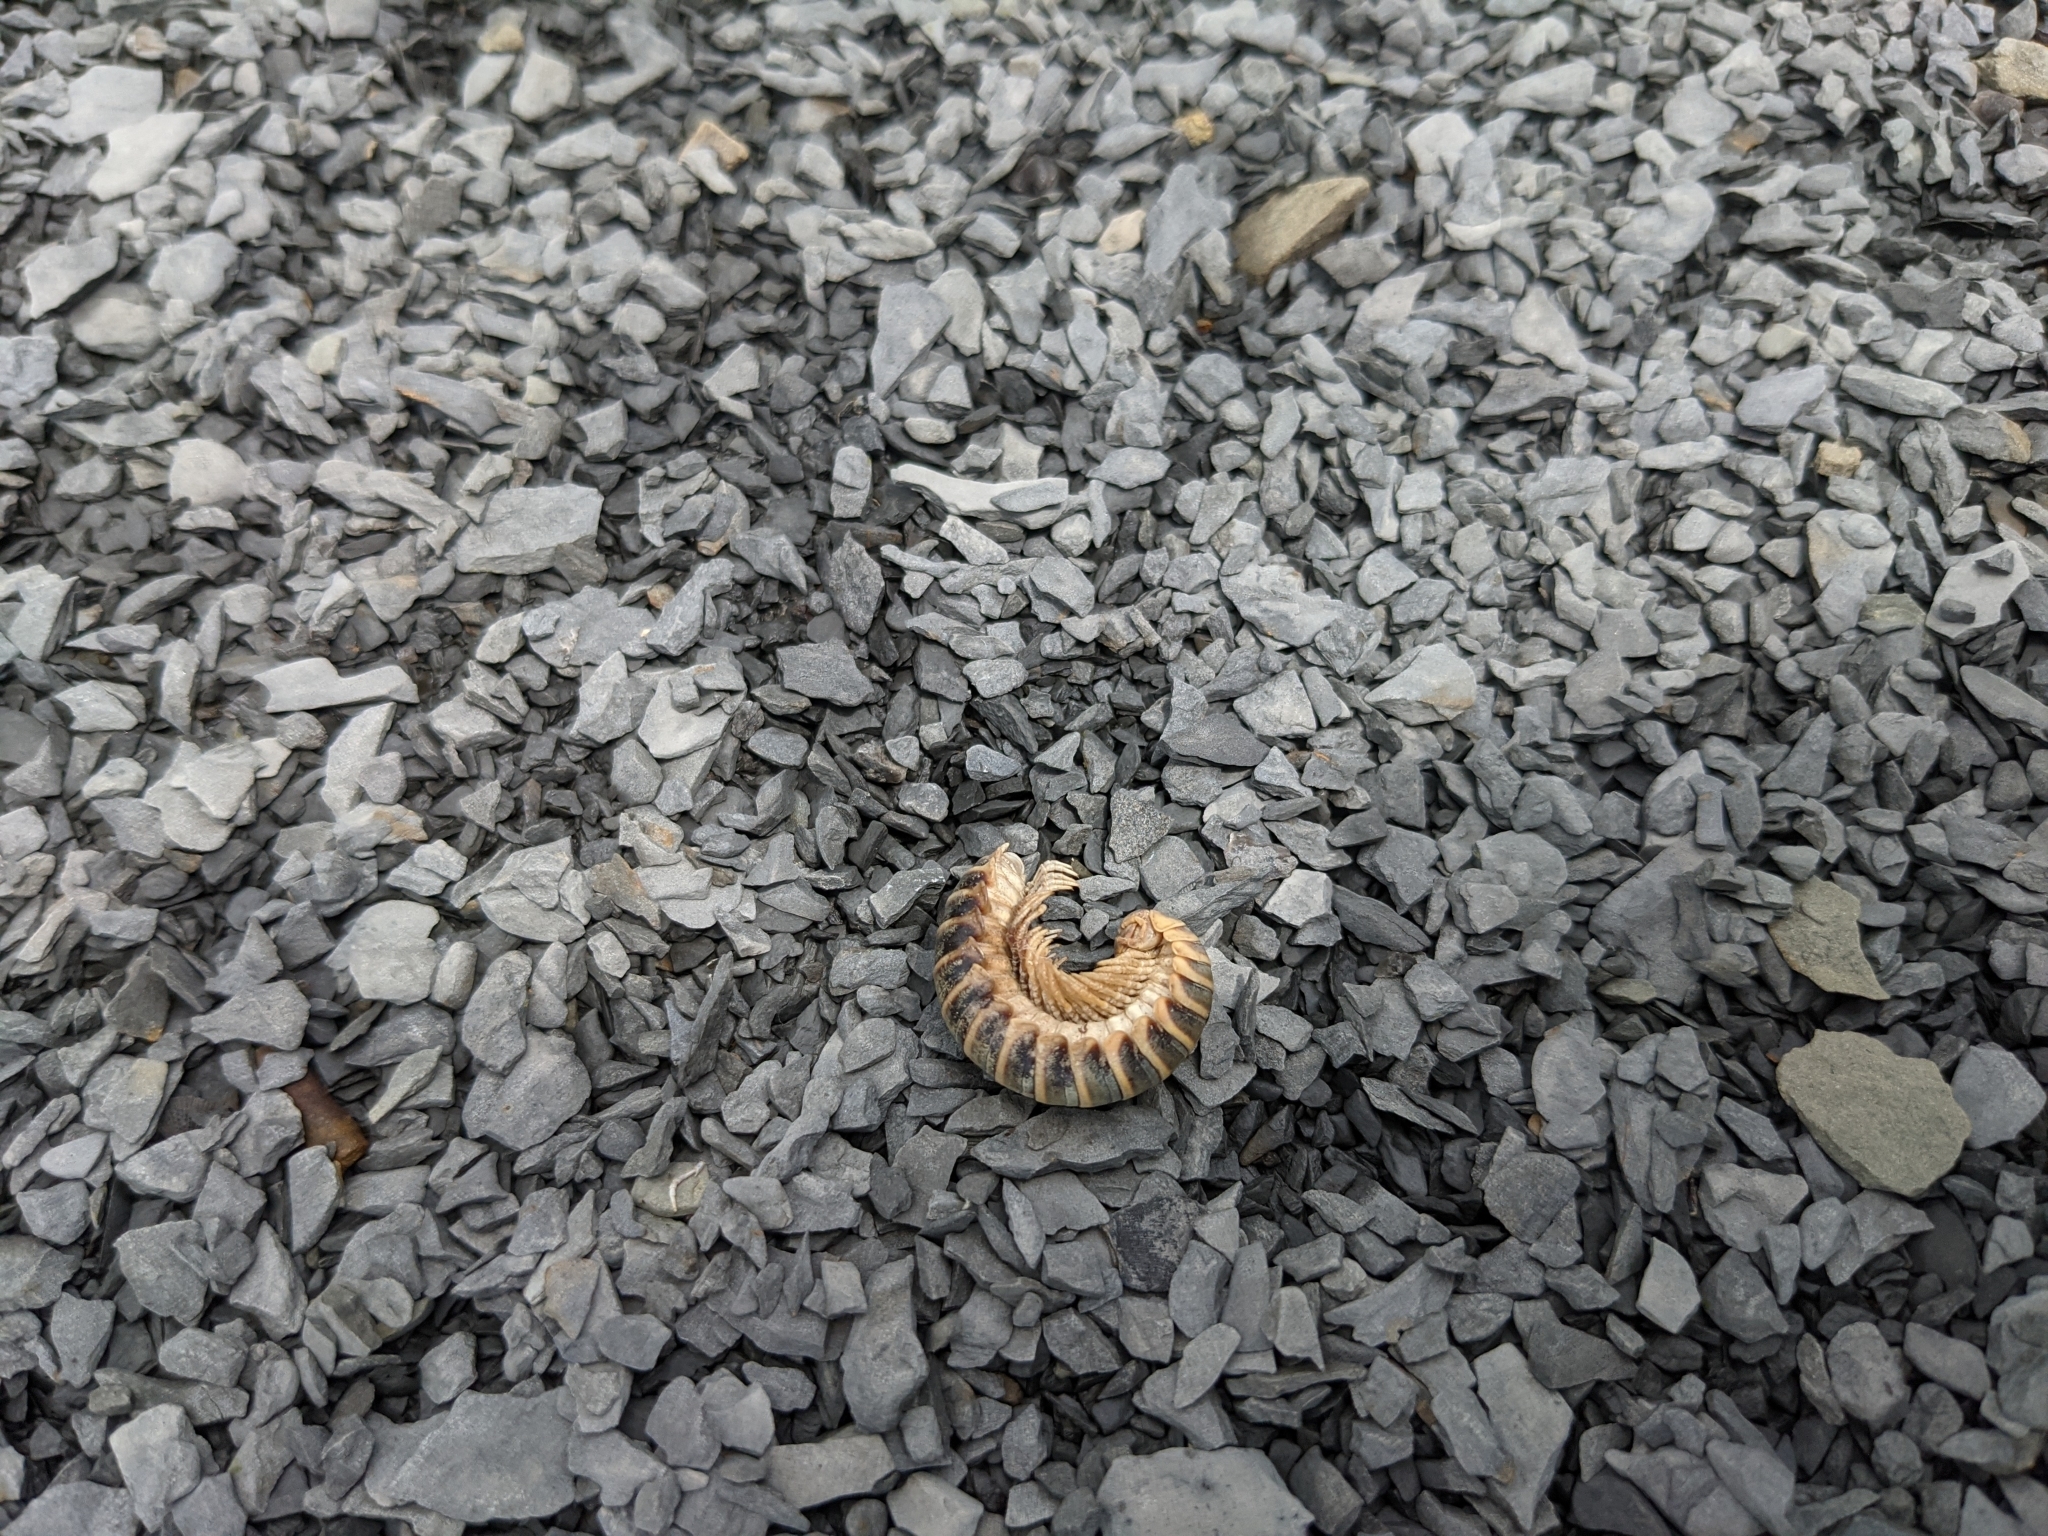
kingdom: Animalia
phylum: Arthropoda
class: Diplopoda
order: Polydesmida
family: Xystodesmidae
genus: Apheloria
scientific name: Apheloria virginiensis
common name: Black-and-gold flat millipede
